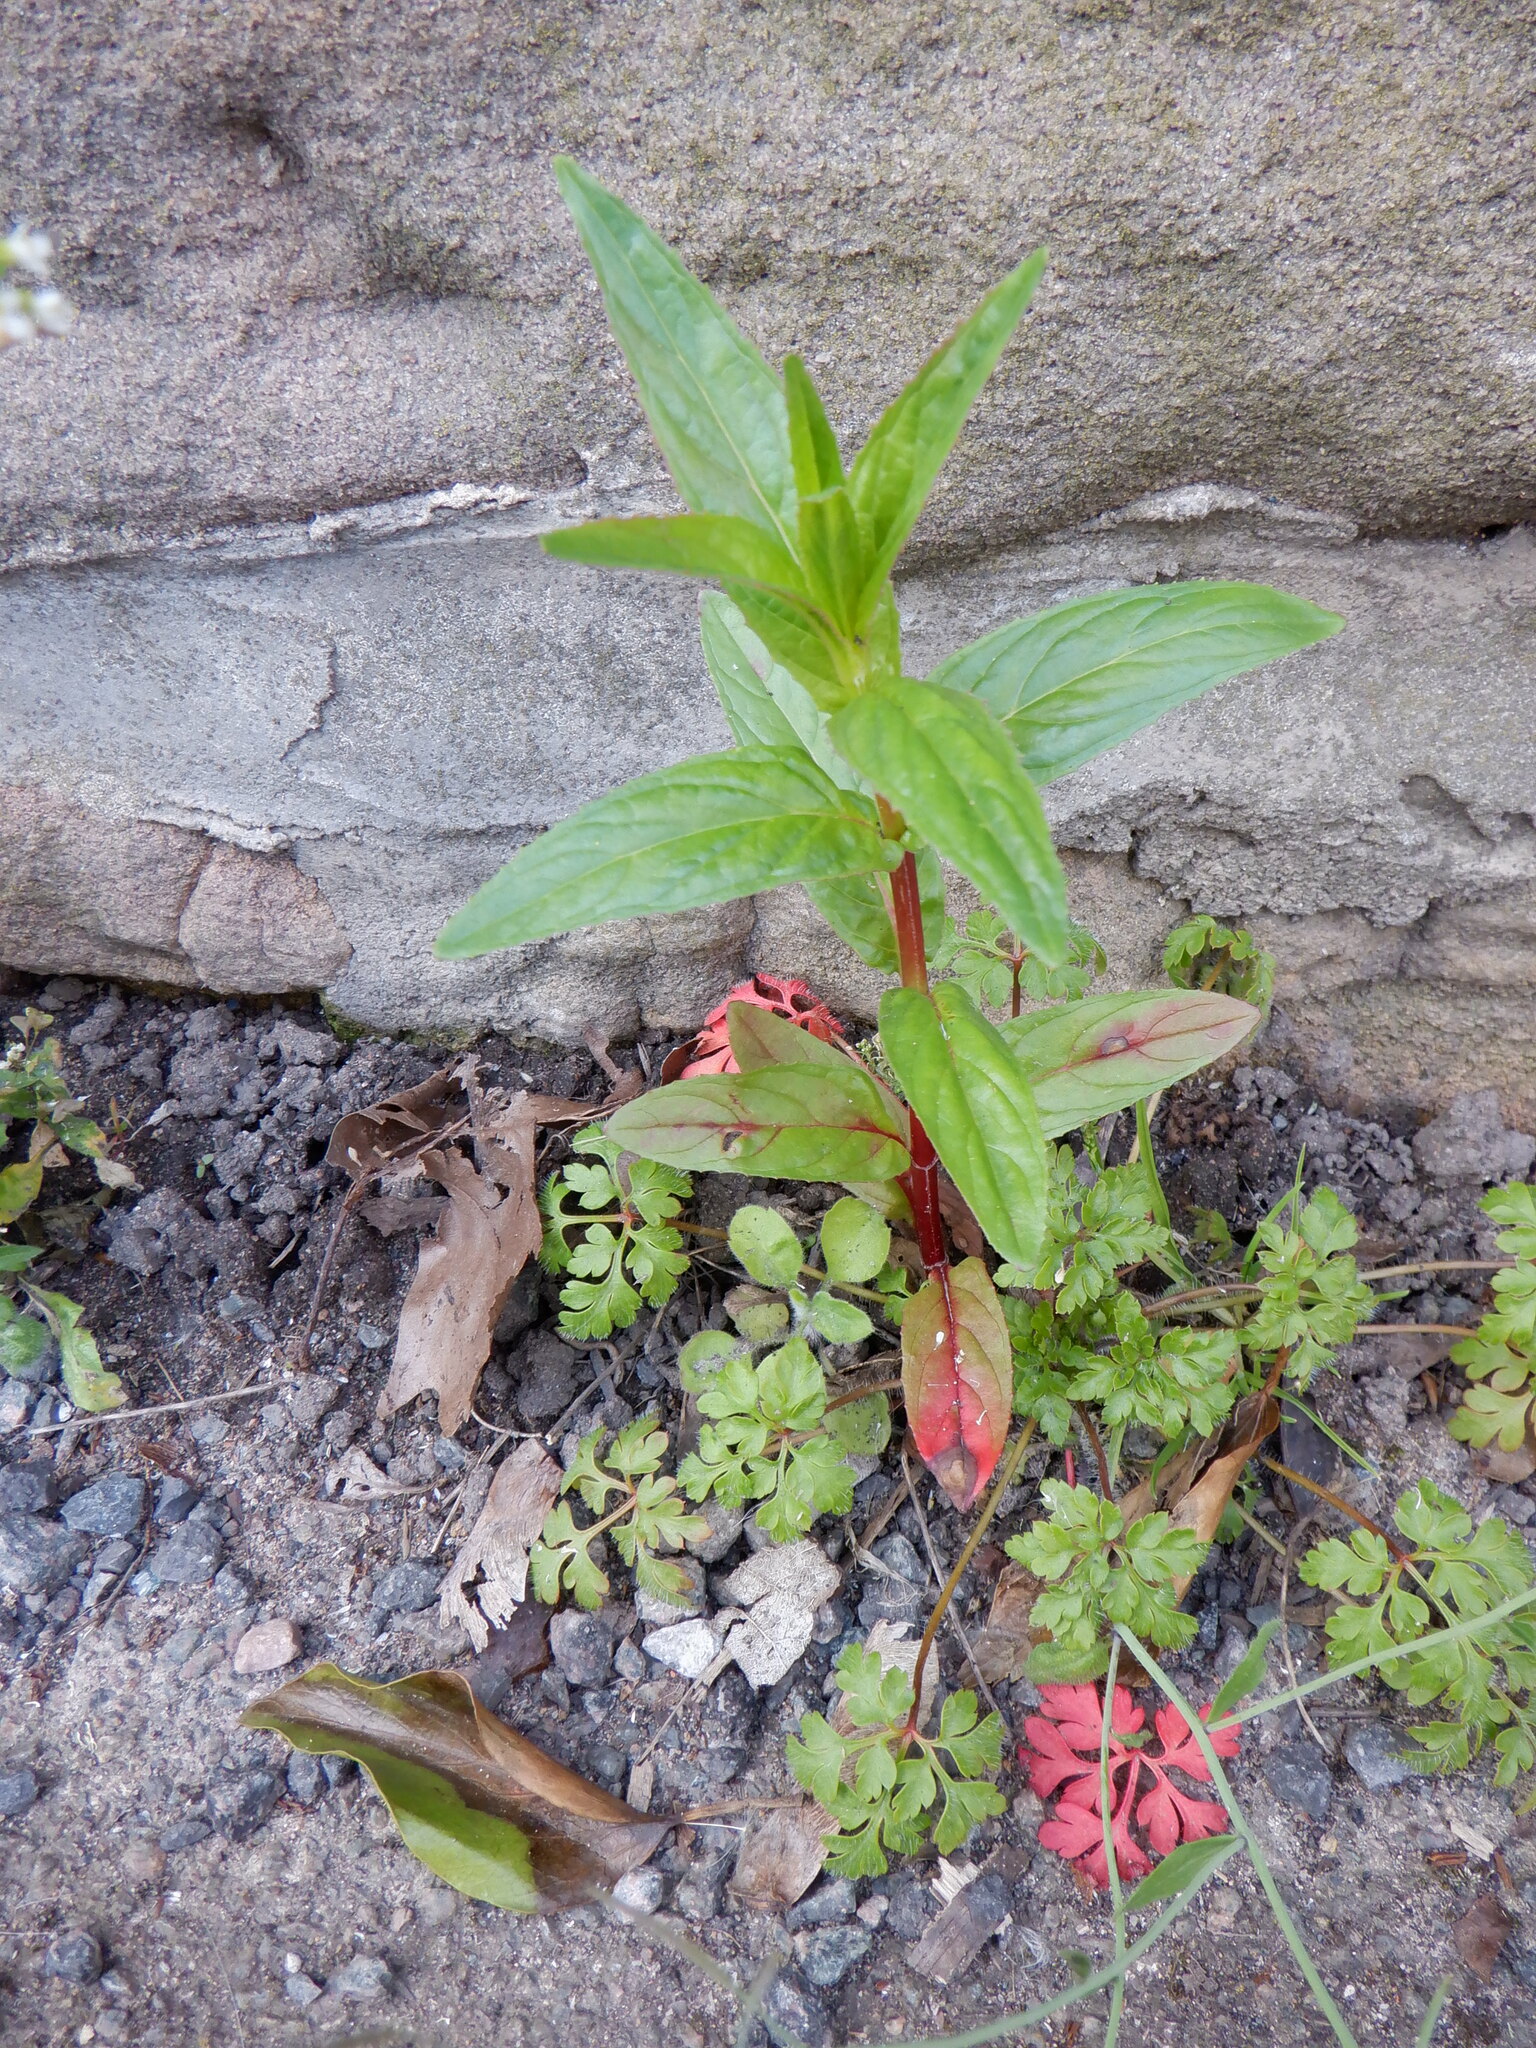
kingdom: Plantae
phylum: Tracheophyta
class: Magnoliopsida
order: Myrtales
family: Onagraceae
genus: Epilobium
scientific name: Epilobium ciliatum
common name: American willowherb
